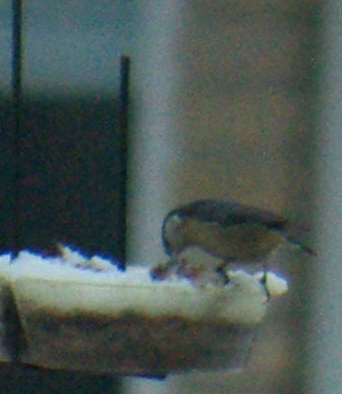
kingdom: Animalia
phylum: Chordata
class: Aves
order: Passeriformes
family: Sittidae
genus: Sitta
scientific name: Sitta canadensis
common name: Red-breasted nuthatch
